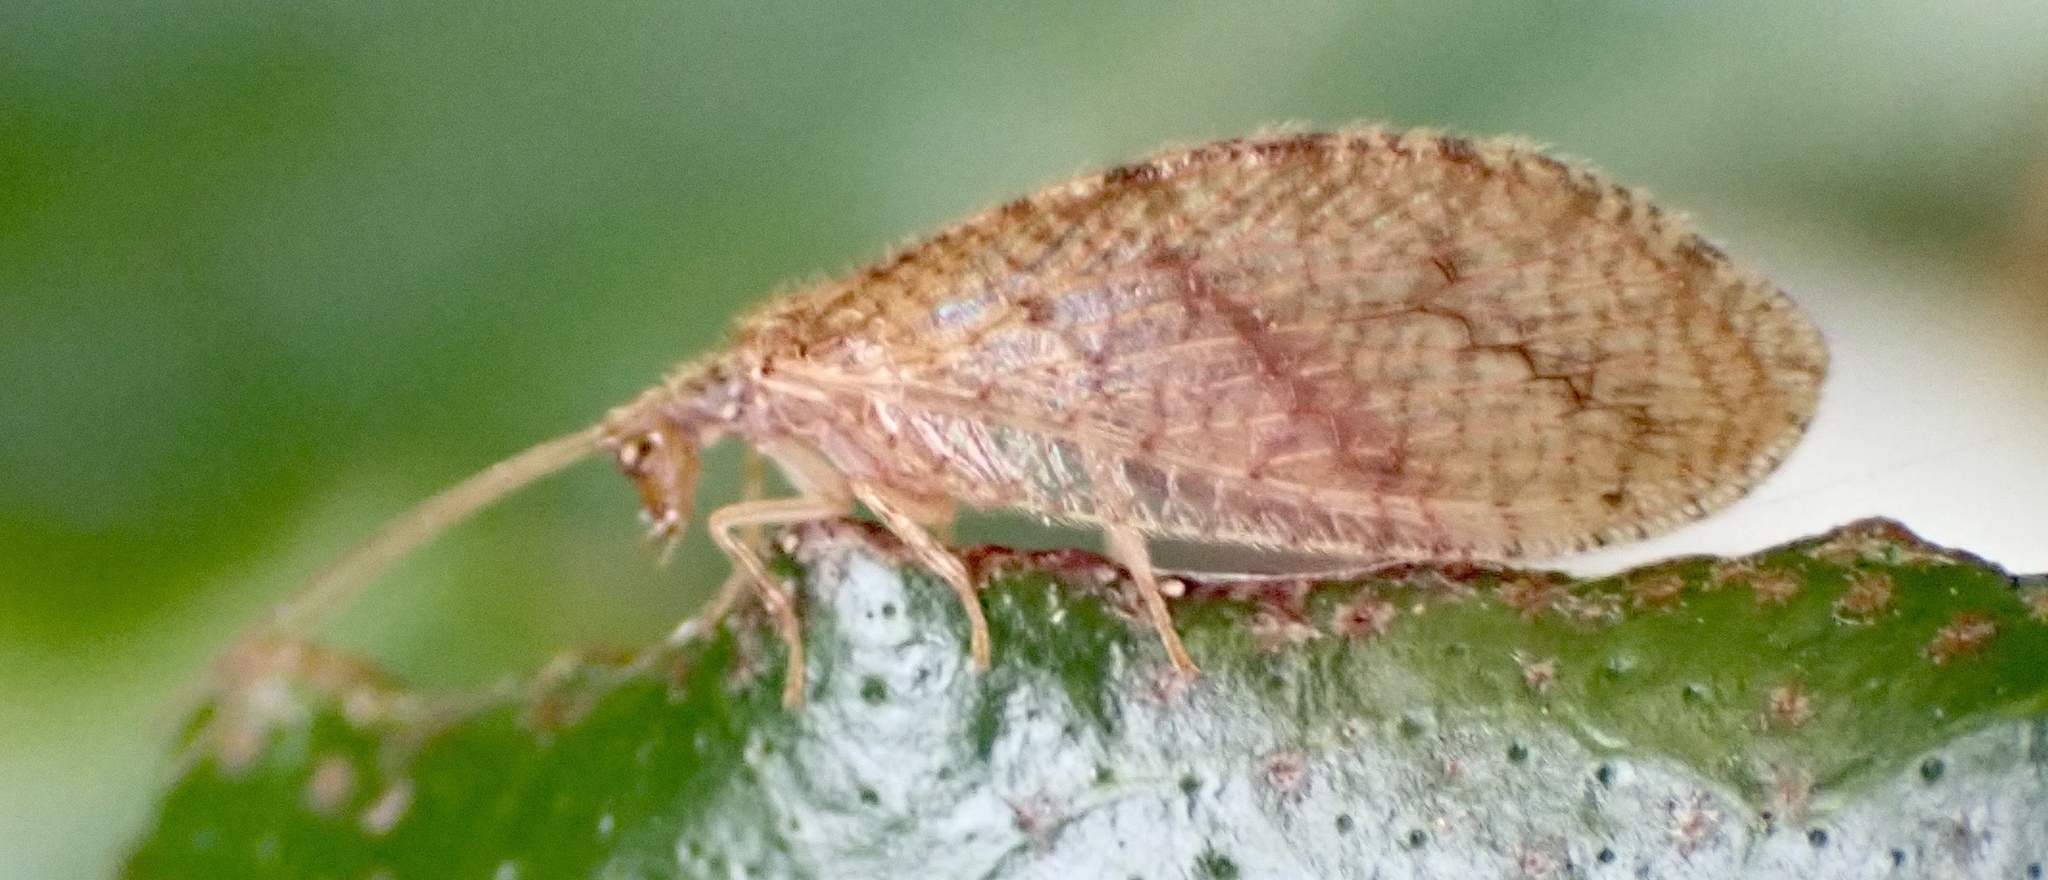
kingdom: Animalia
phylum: Arthropoda
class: Insecta
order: Neuroptera
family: Hemerobiidae
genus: Micromus
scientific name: Micromus posticus
